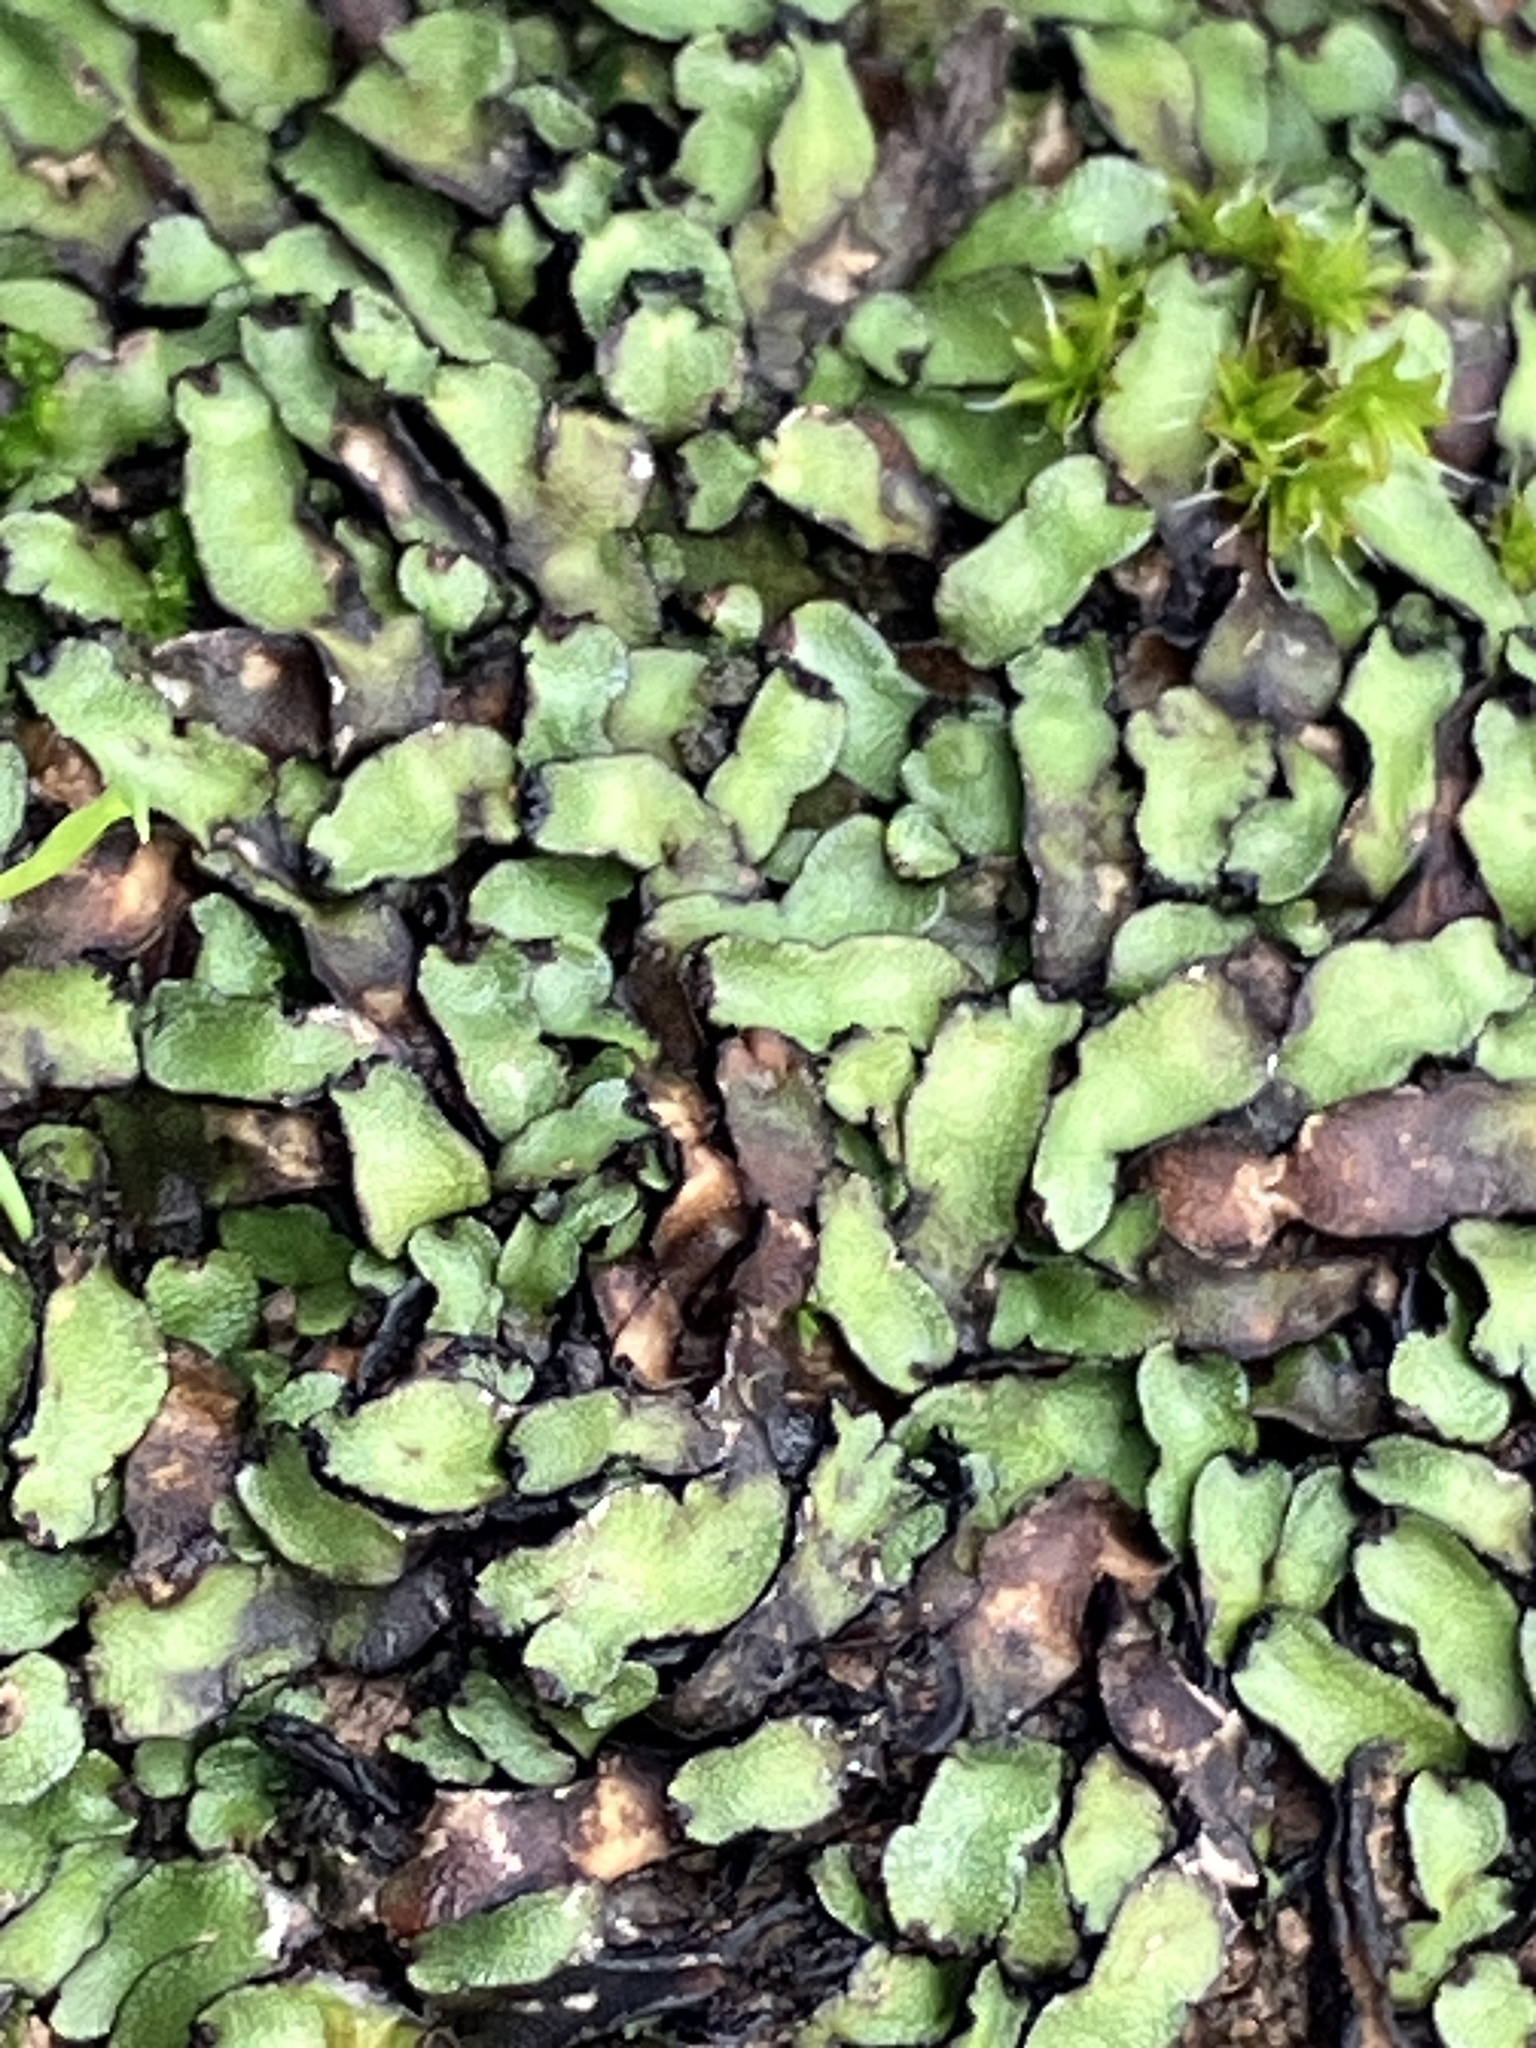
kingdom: Plantae
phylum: Marchantiophyta
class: Marchantiopsida
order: Marchantiales
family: Targioniaceae
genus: Targionia
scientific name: Targionia hypophylla
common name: Orobus-seed liverwort
